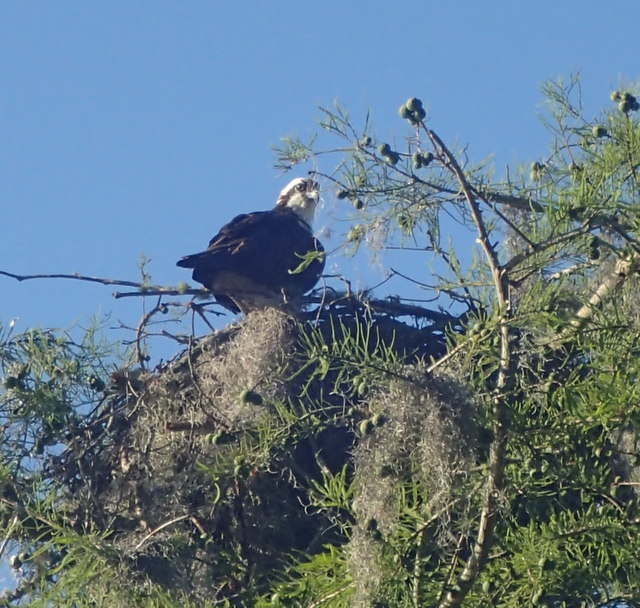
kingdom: Animalia
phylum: Chordata
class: Aves
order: Accipitriformes
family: Pandionidae
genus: Pandion
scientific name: Pandion haliaetus
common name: Osprey
